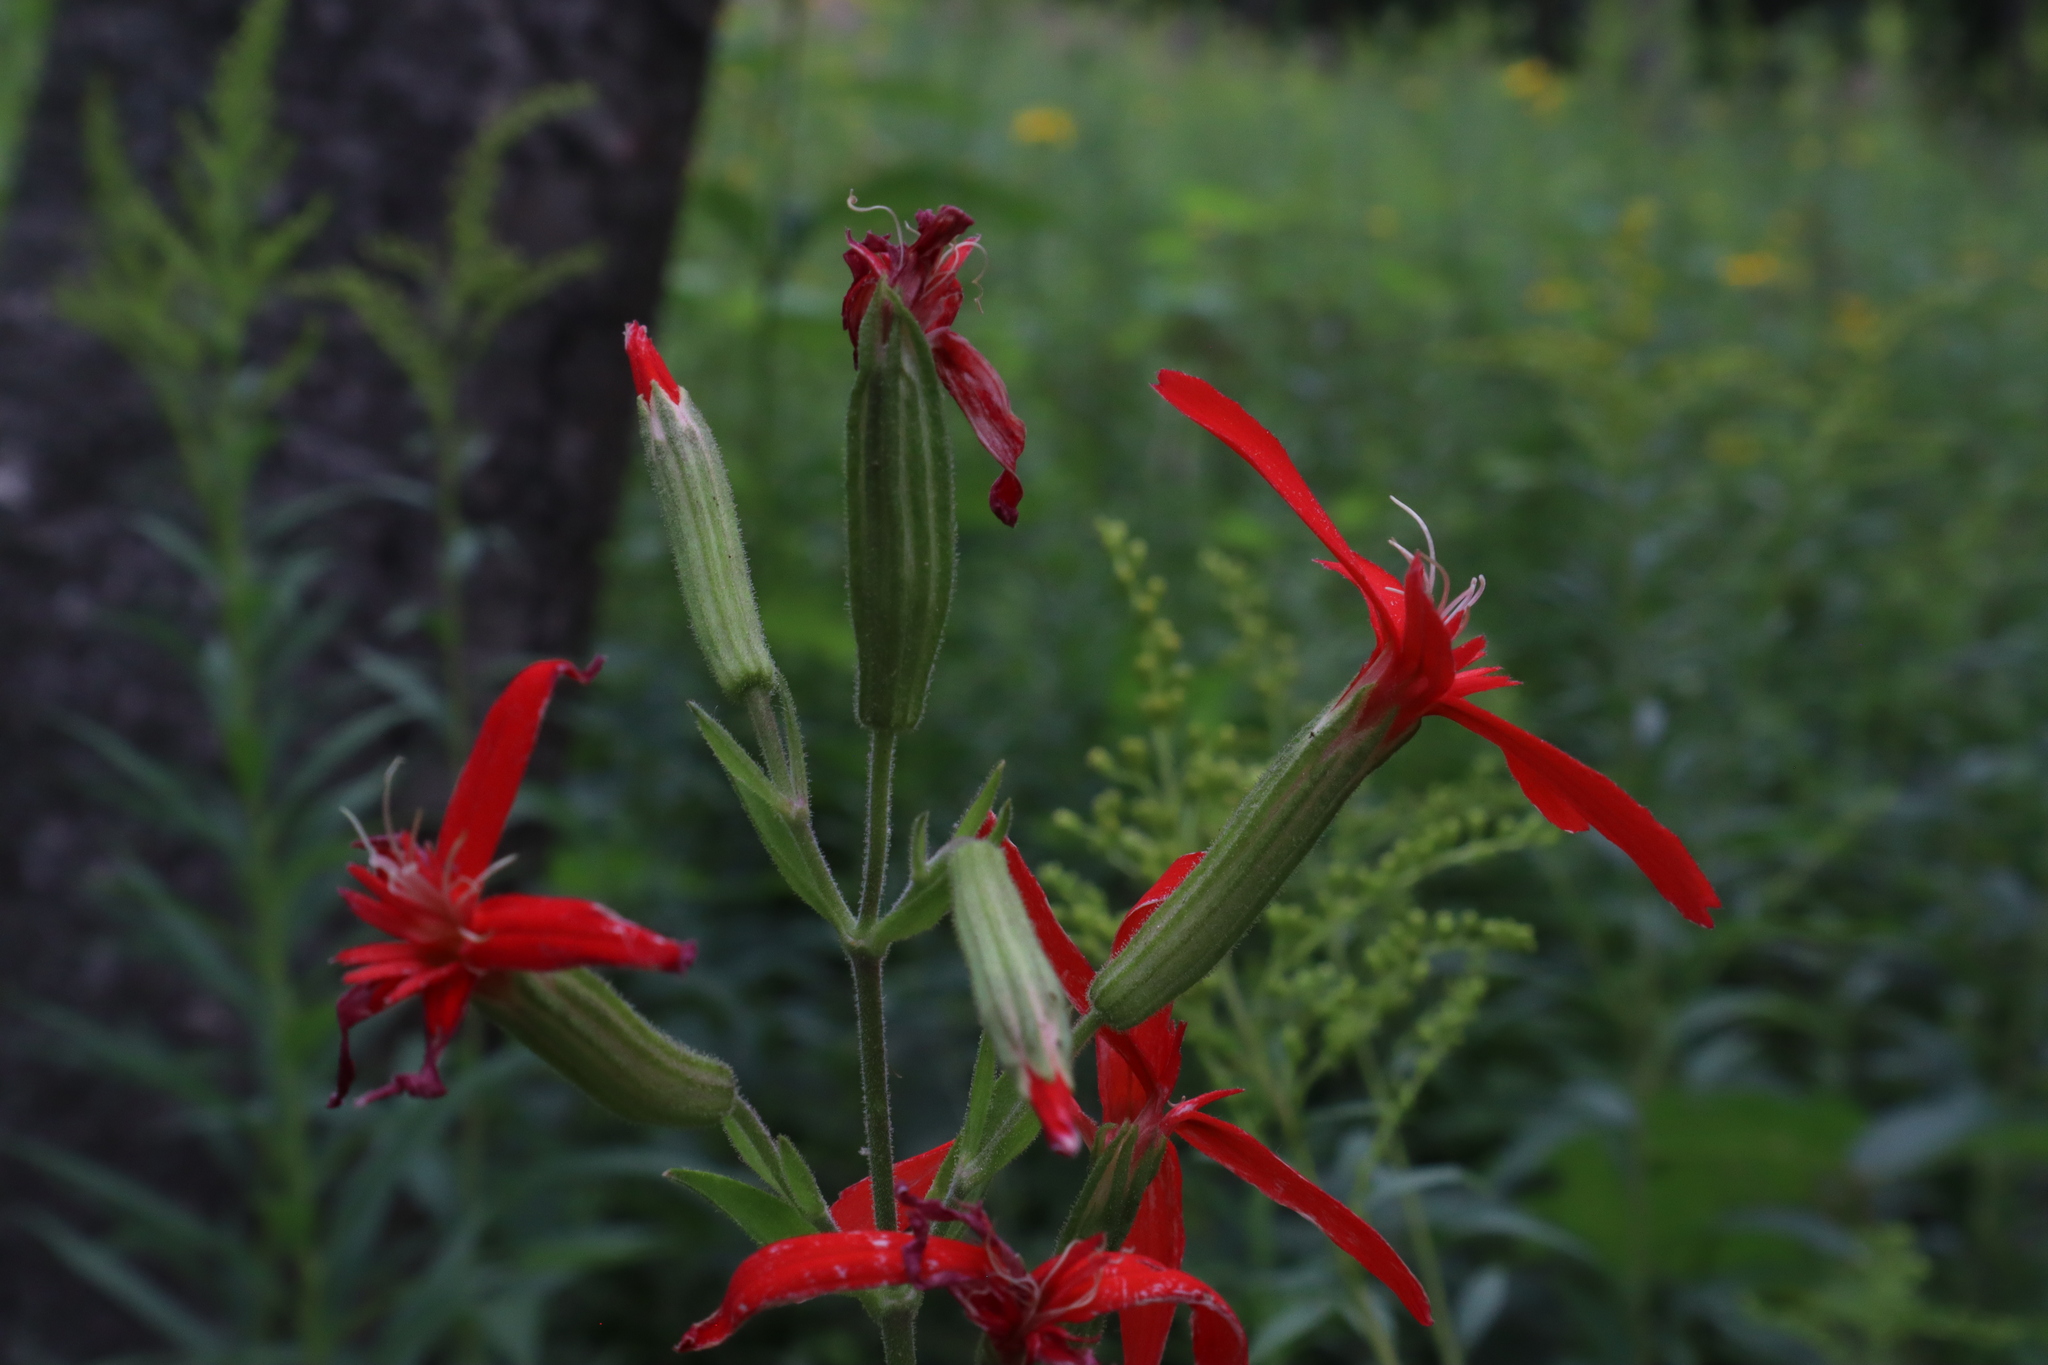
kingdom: Plantae
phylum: Tracheophyta
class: Magnoliopsida
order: Caryophyllales
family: Caryophyllaceae
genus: Silene
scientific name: Silene regia
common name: Royal catchfly
